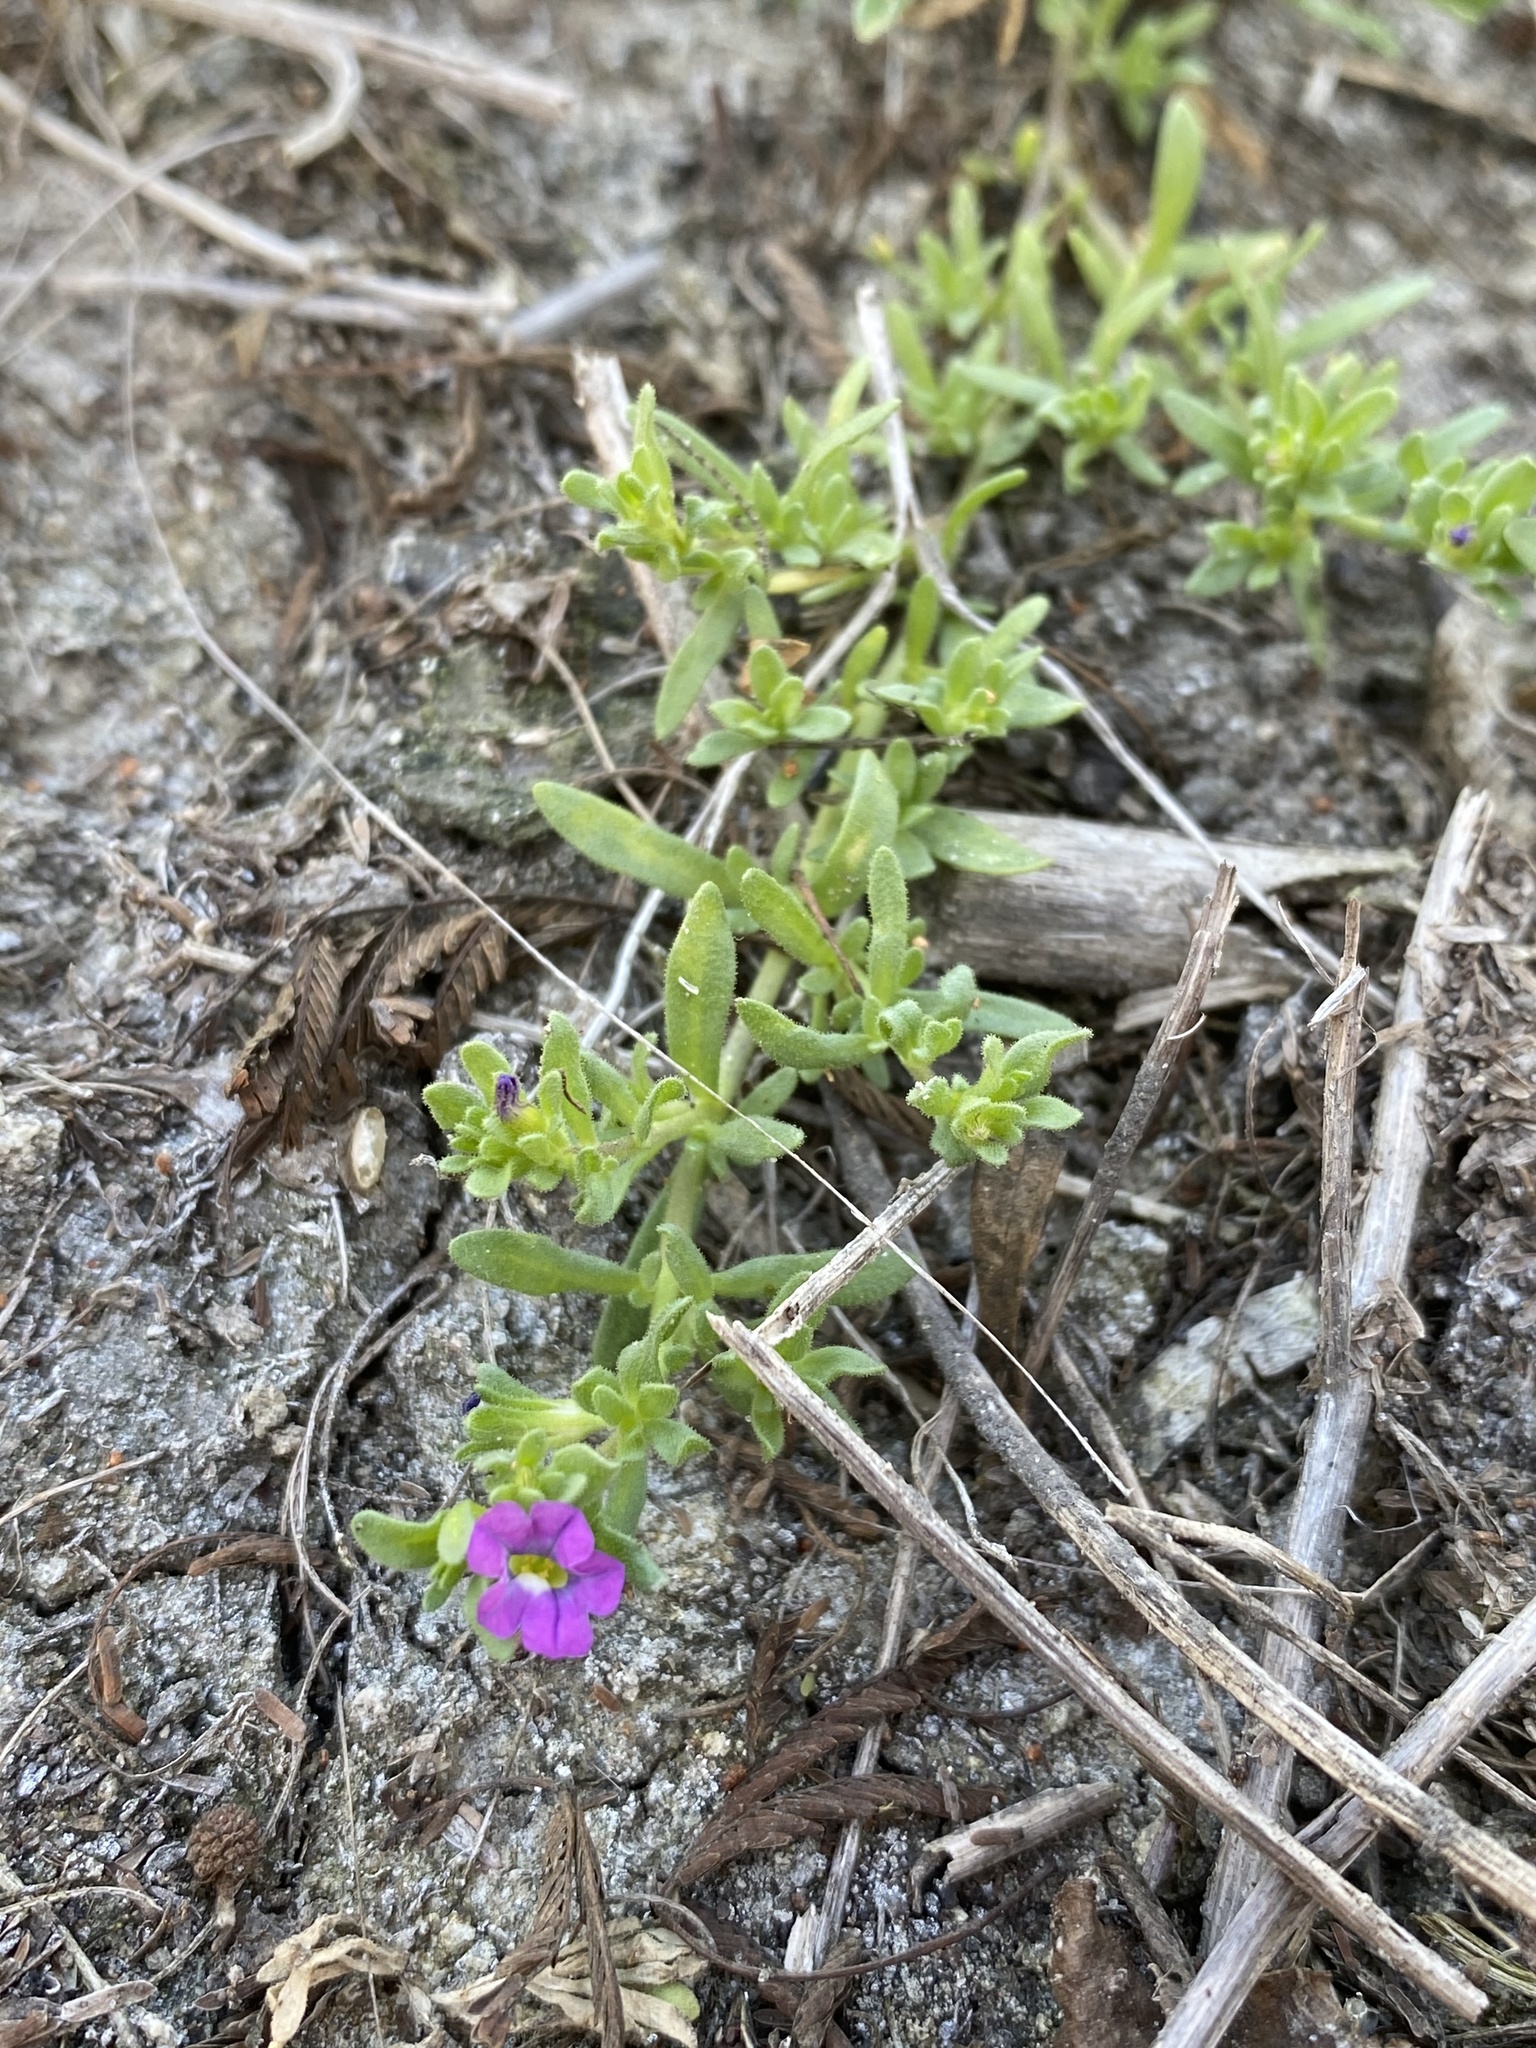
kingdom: Plantae
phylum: Tracheophyta
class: Magnoliopsida
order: Solanales
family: Solanaceae
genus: Calibrachoa
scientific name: Calibrachoa parviflora
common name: Seaside petunia
